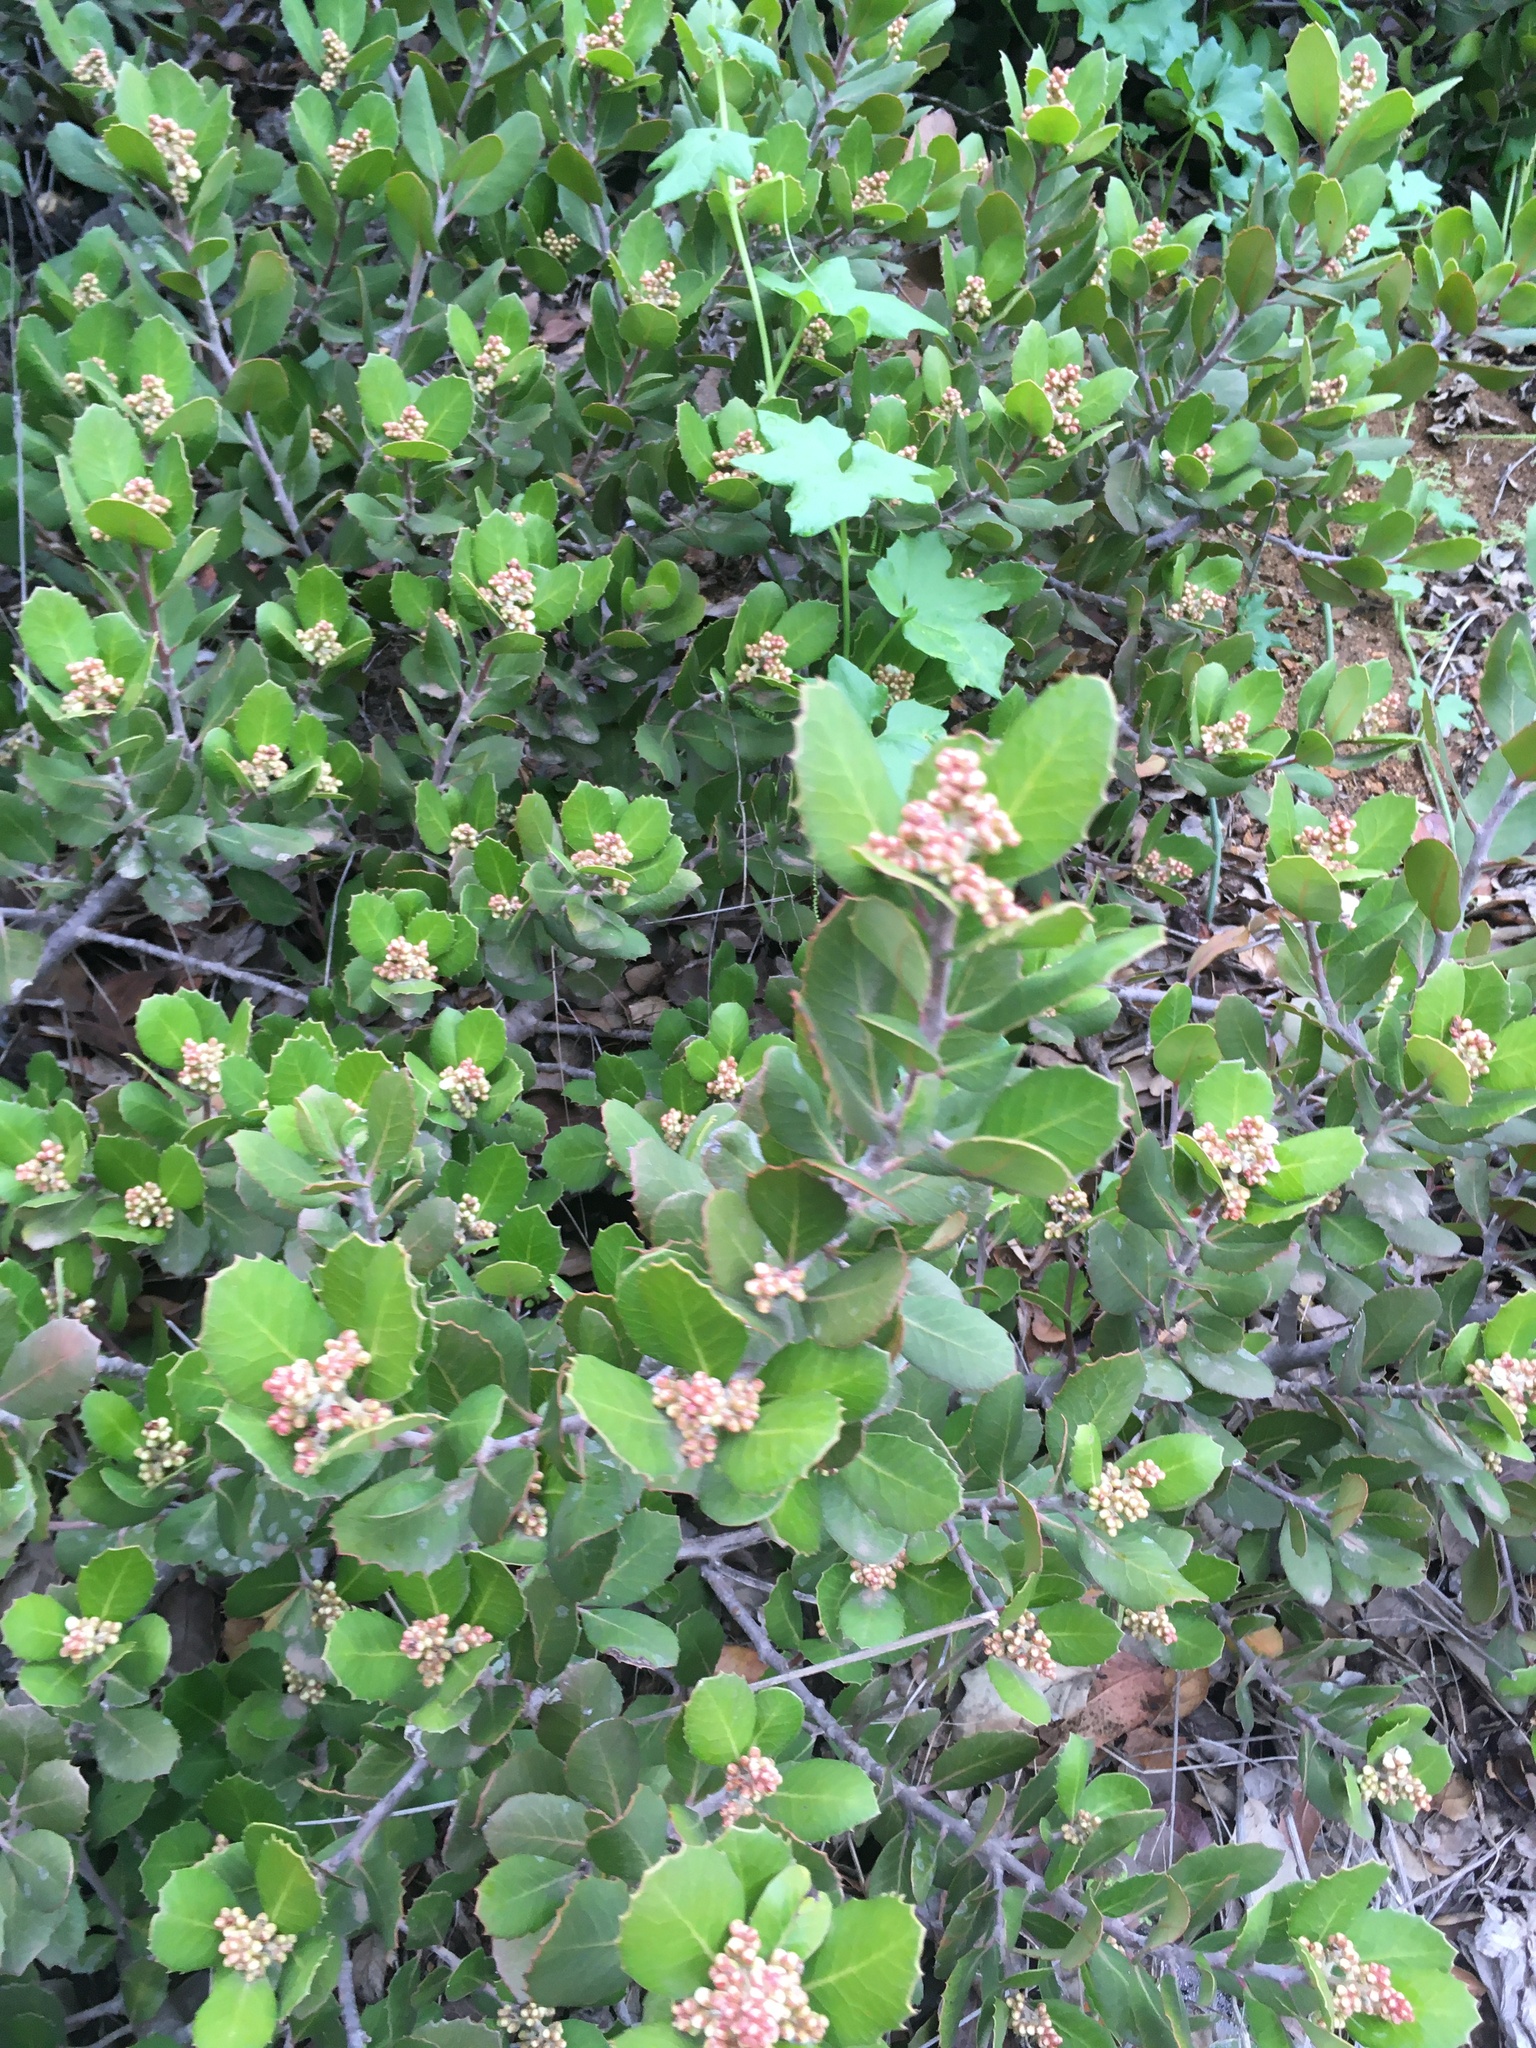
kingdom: Plantae
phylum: Tracheophyta
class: Magnoliopsida
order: Sapindales
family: Anacardiaceae
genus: Rhus
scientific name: Rhus integrifolia
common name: Lemonade sumac
